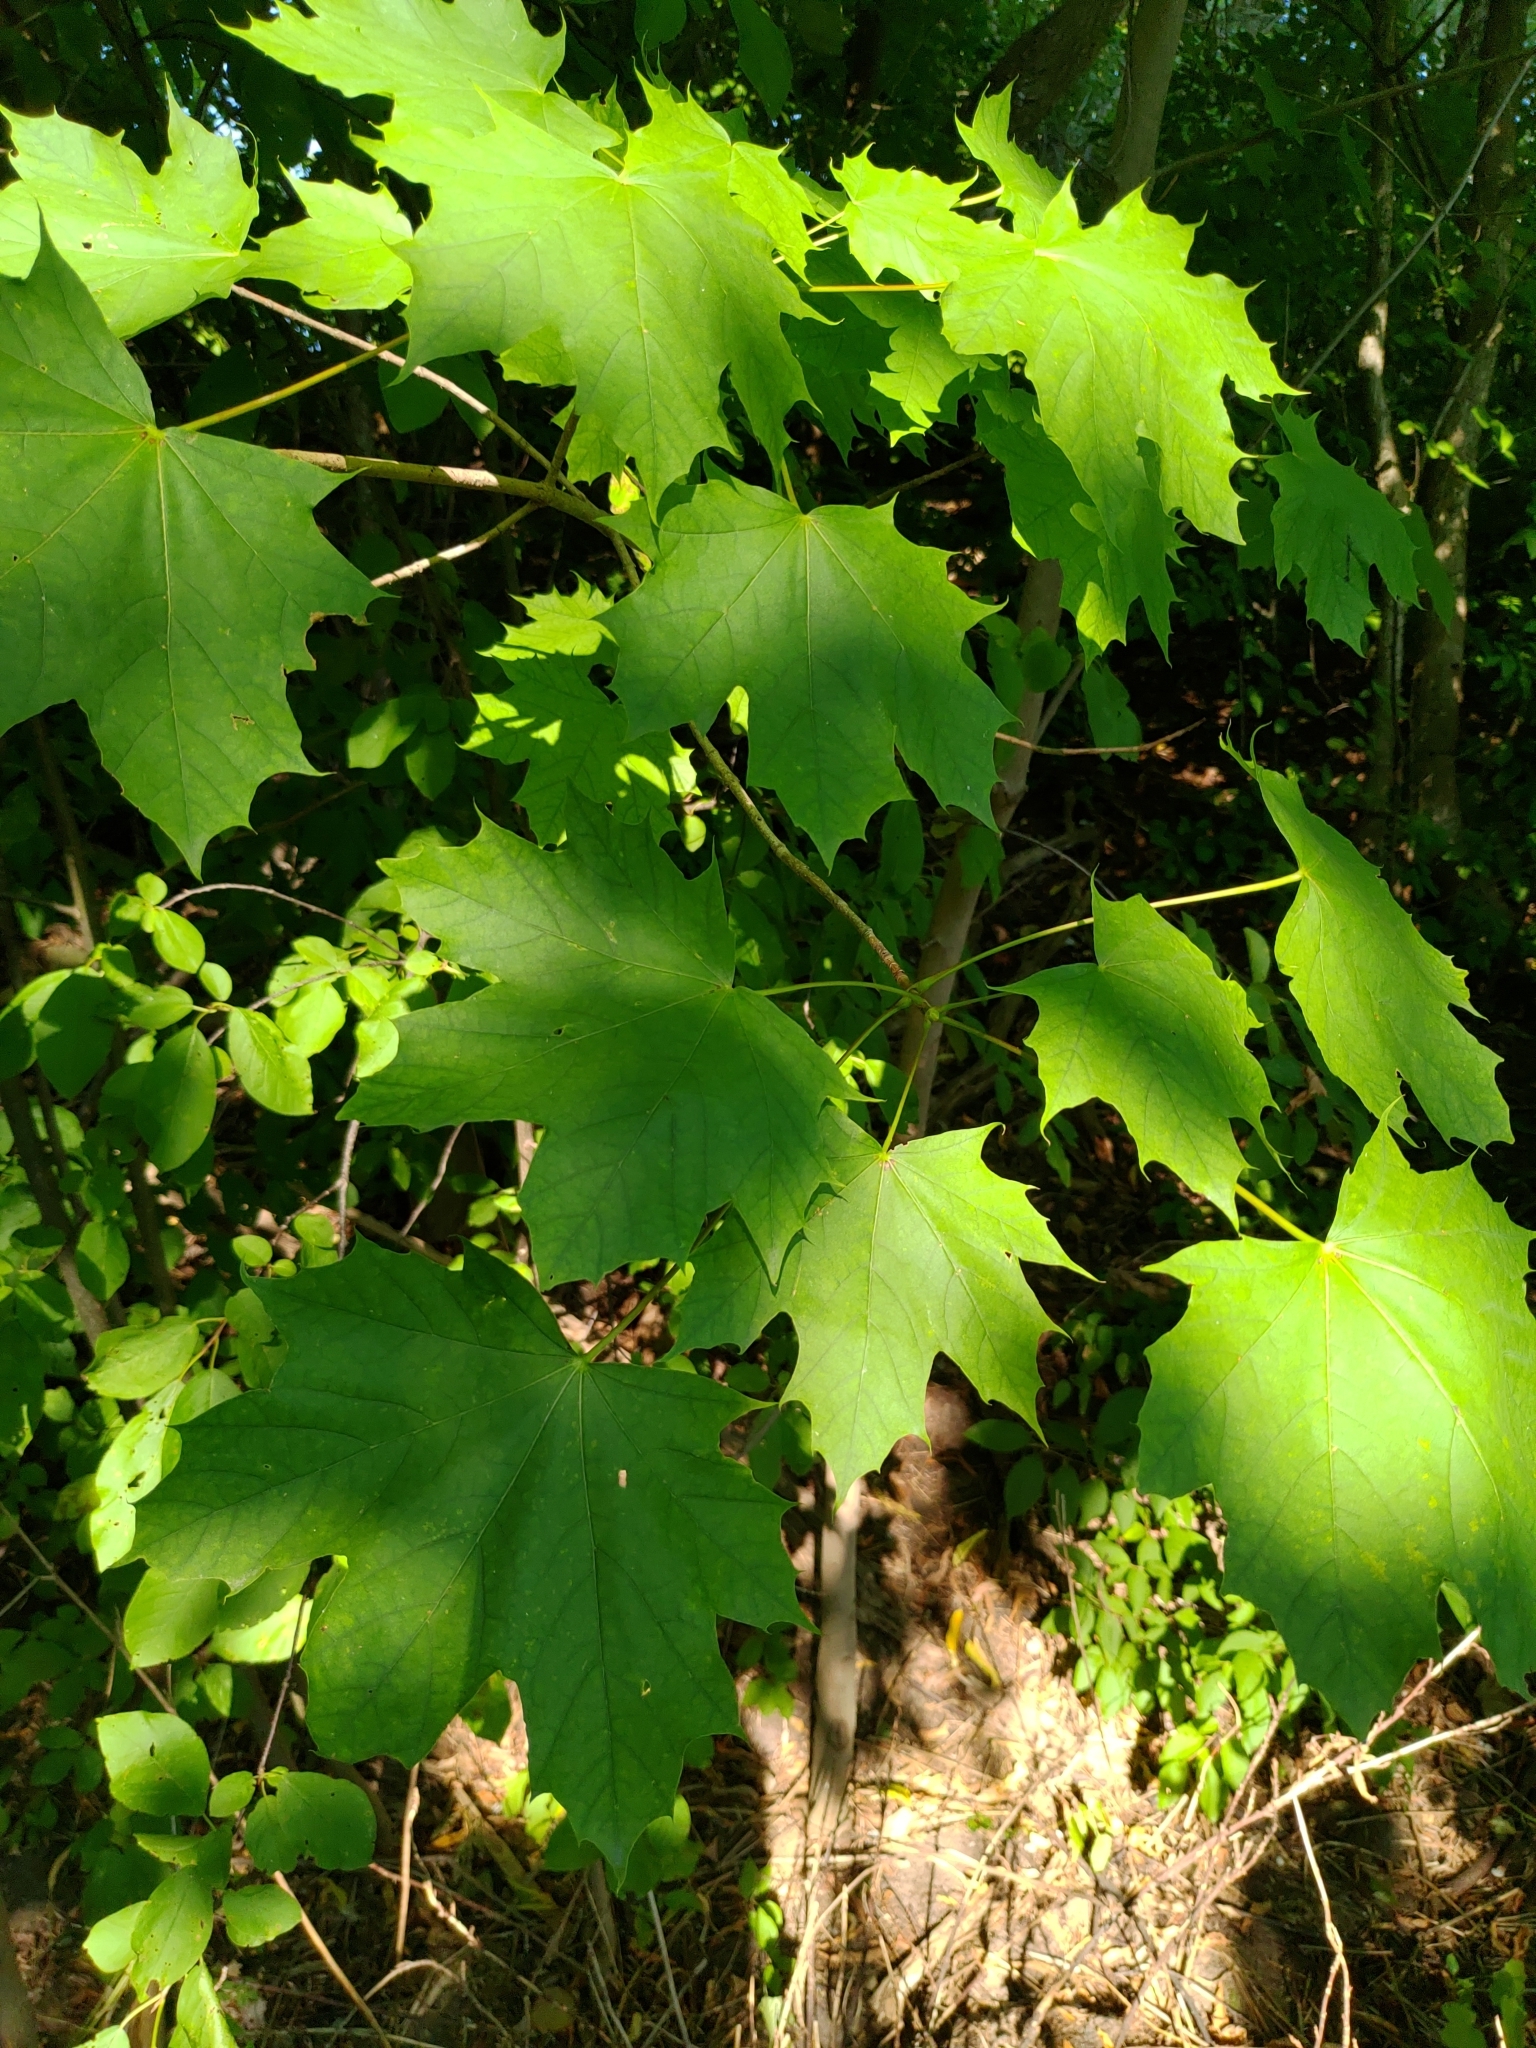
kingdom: Plantae
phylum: Tracheophyta
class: Magnoliopsida
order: Sapindales
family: Sapindaceae
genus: Acer
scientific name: Acer platanoides
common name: Norway maple
